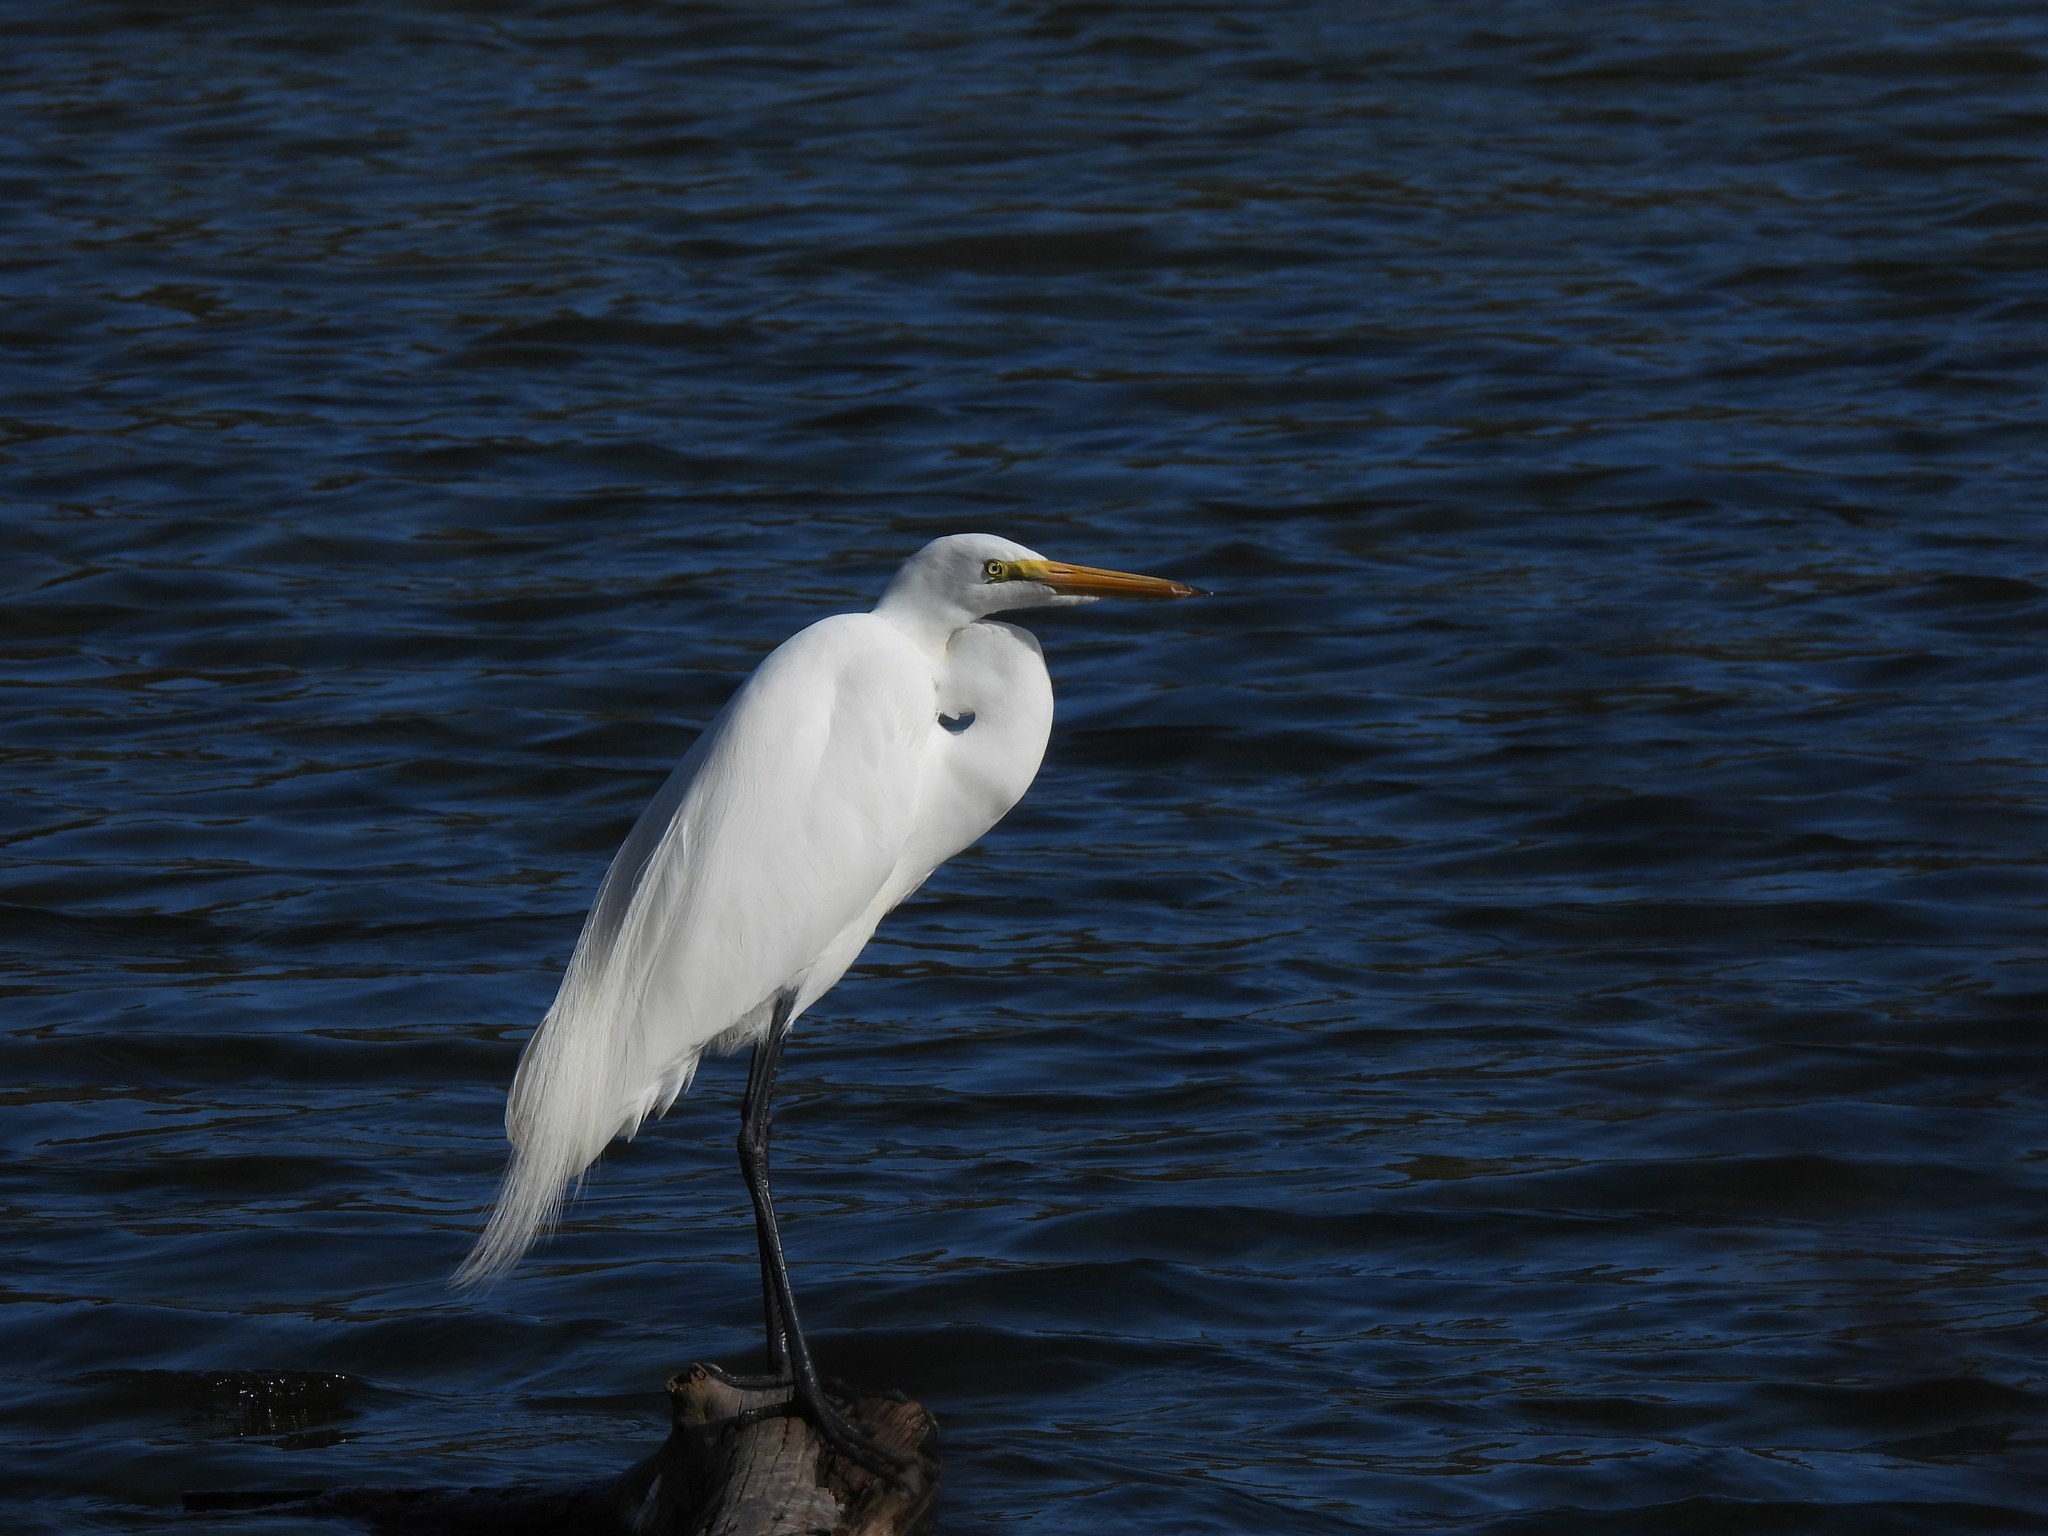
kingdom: Animalia
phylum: Chordata
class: Aves
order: Pelecaniformes
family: Ardeidae
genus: Ardea
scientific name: Ardea alba
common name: Great egret
